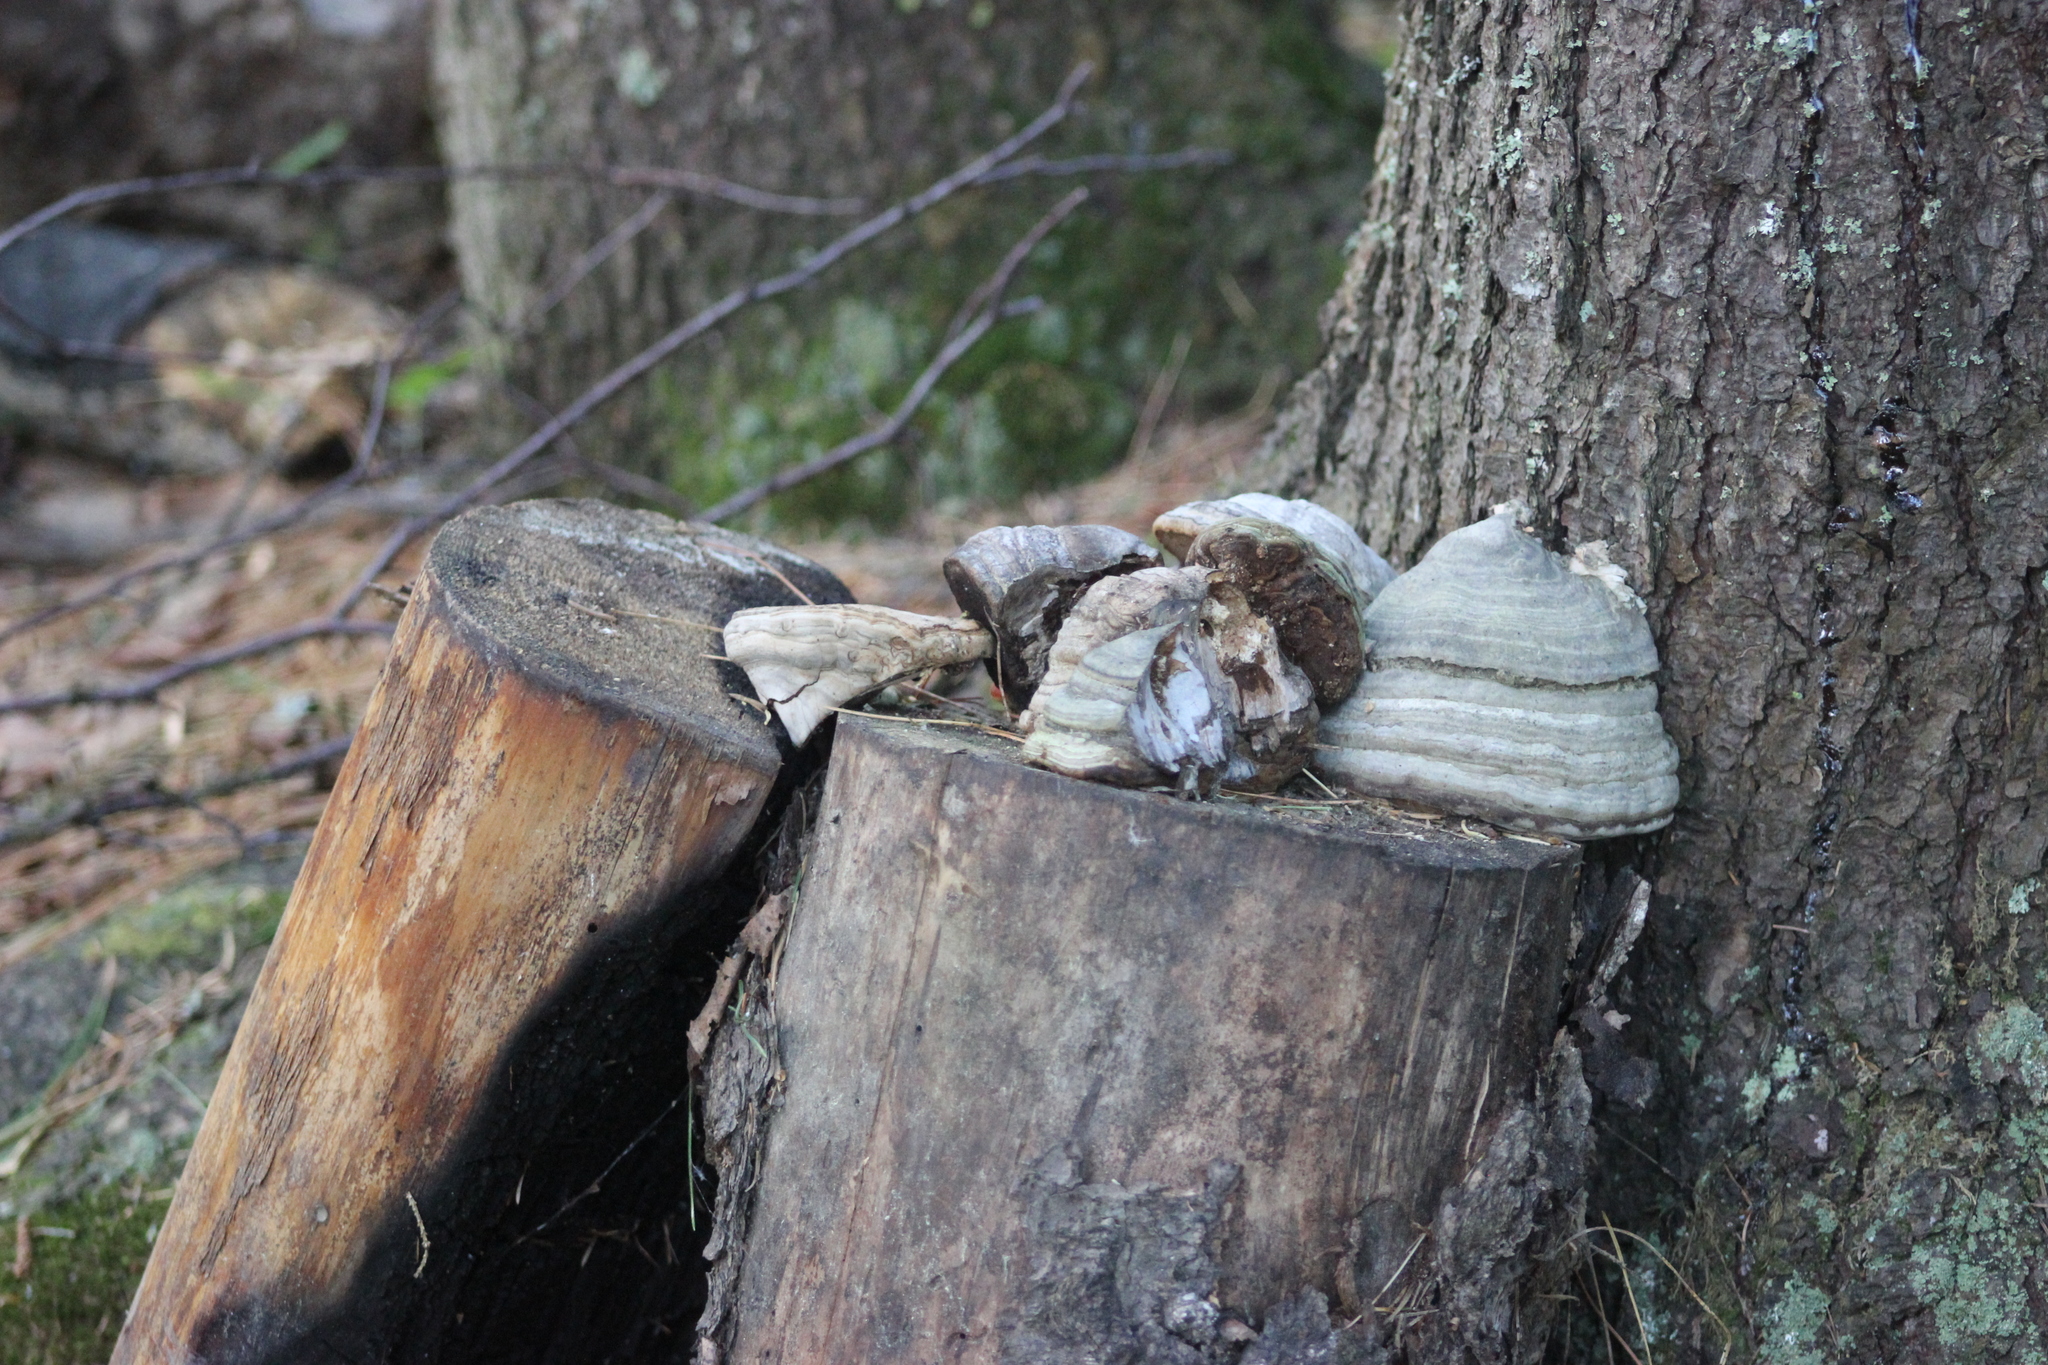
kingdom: Fungi
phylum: Basidiomycota
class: Agaricomycetes
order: Polyporales
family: Polyporaceae
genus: Fomes
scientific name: Fomes fomentarius
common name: Hoof fungus
